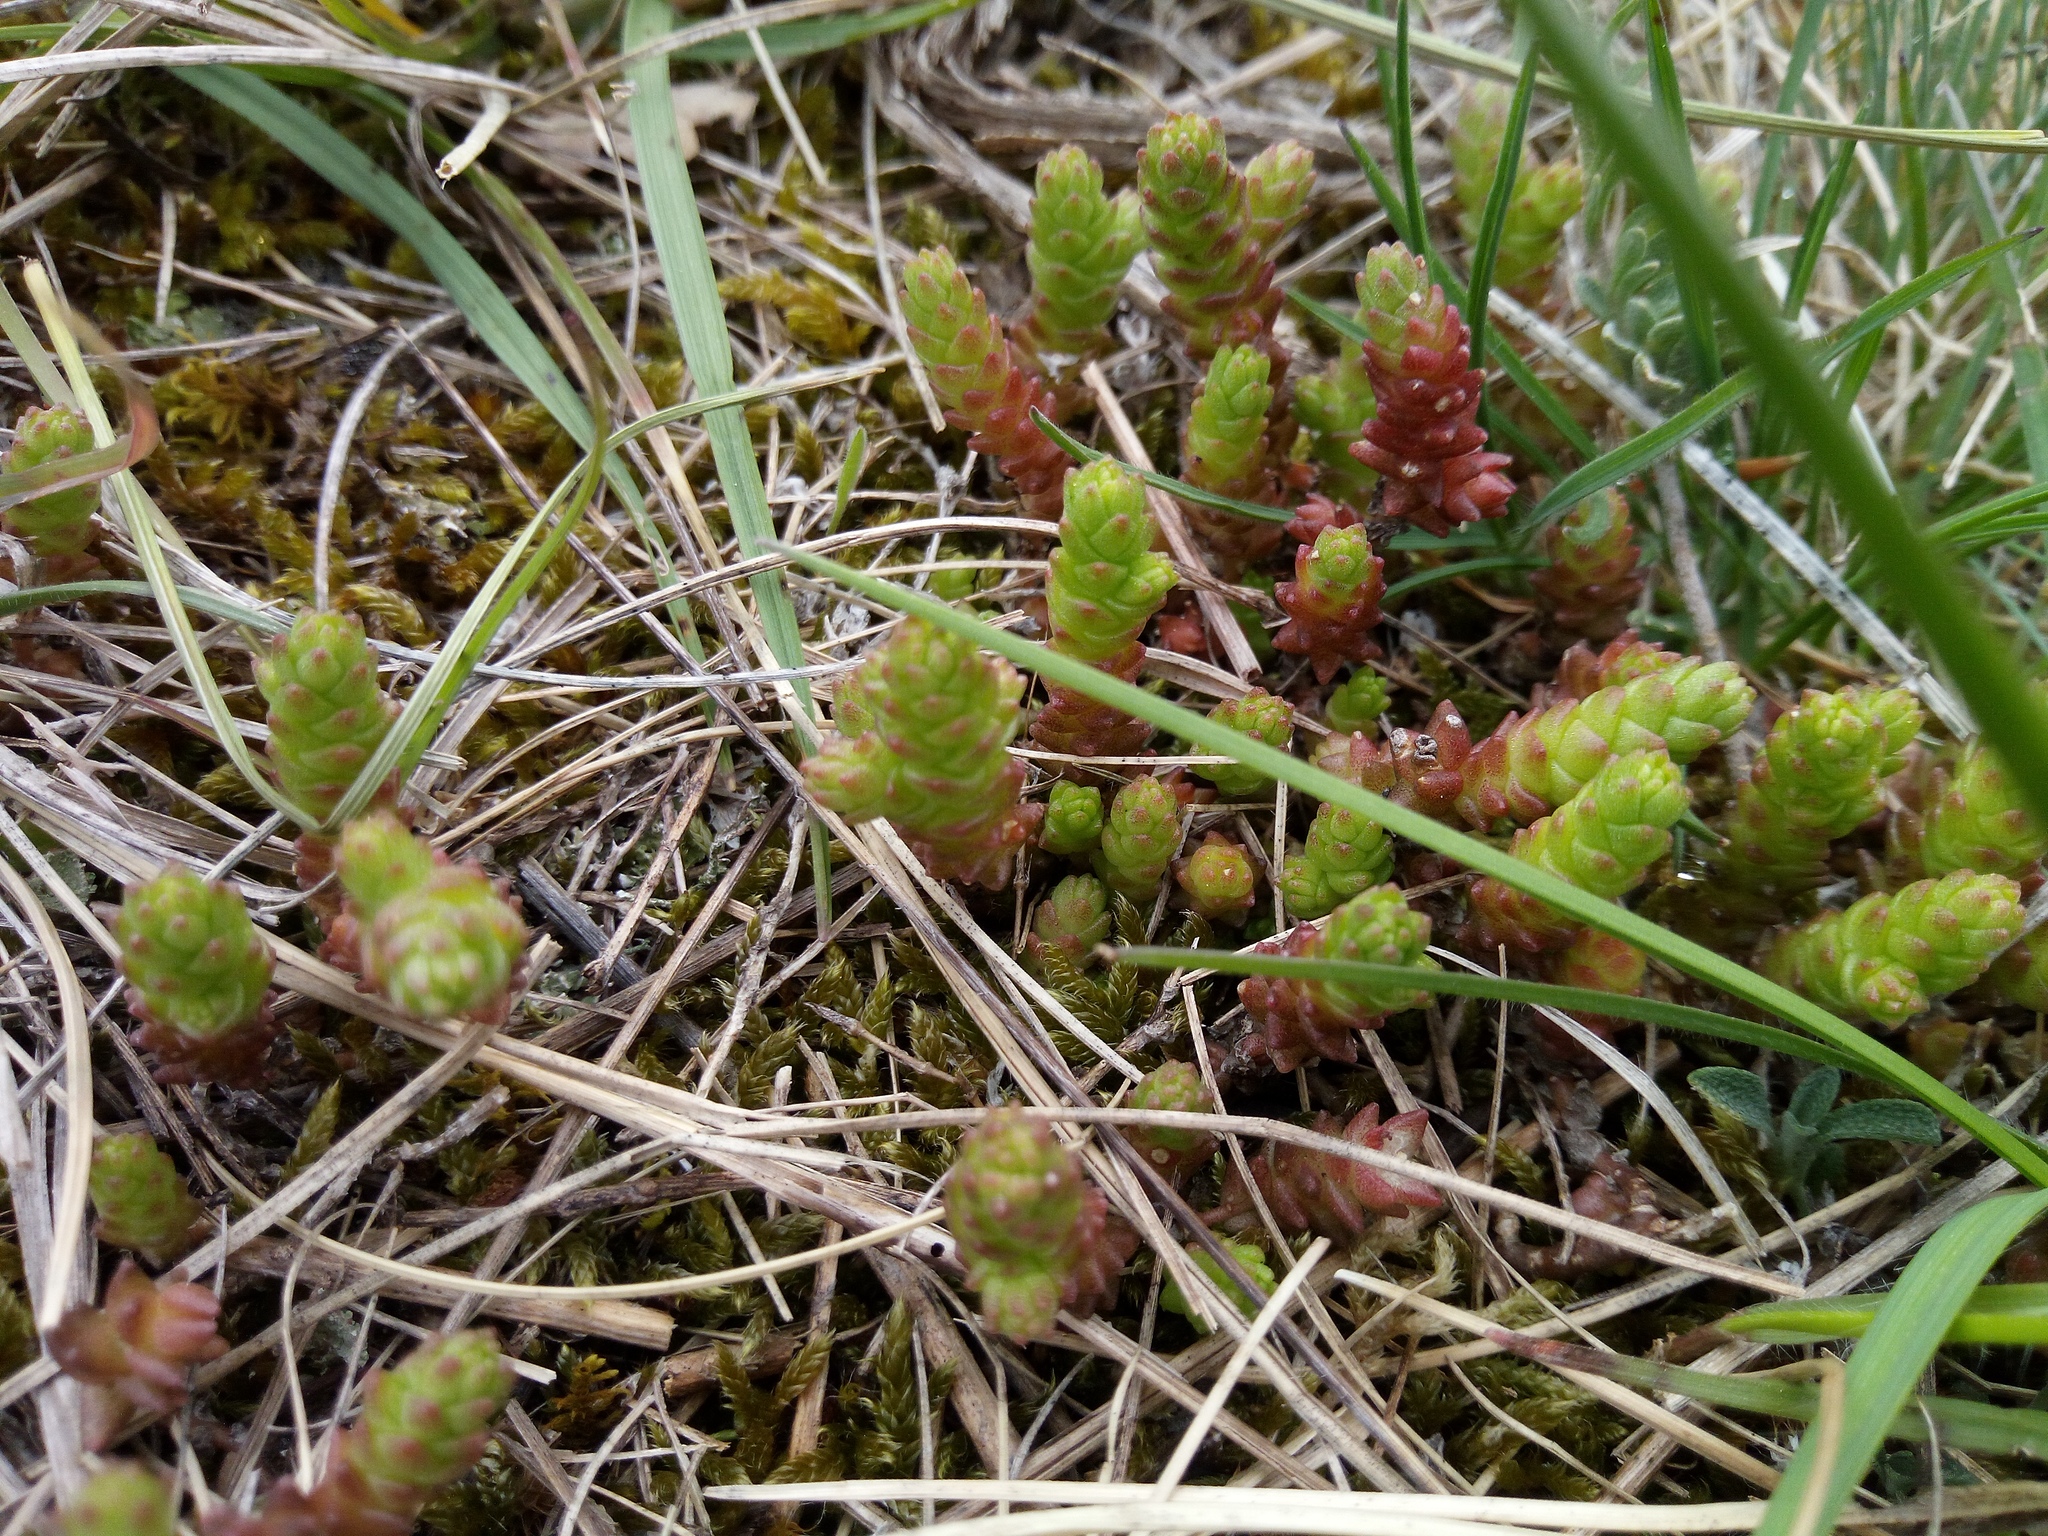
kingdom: Plantae
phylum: Tracheophyta
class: Magnoliopsida
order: Saxifragales
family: Crassulaceae
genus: Sedum
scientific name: Sedum acre
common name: Biting stonecrop
